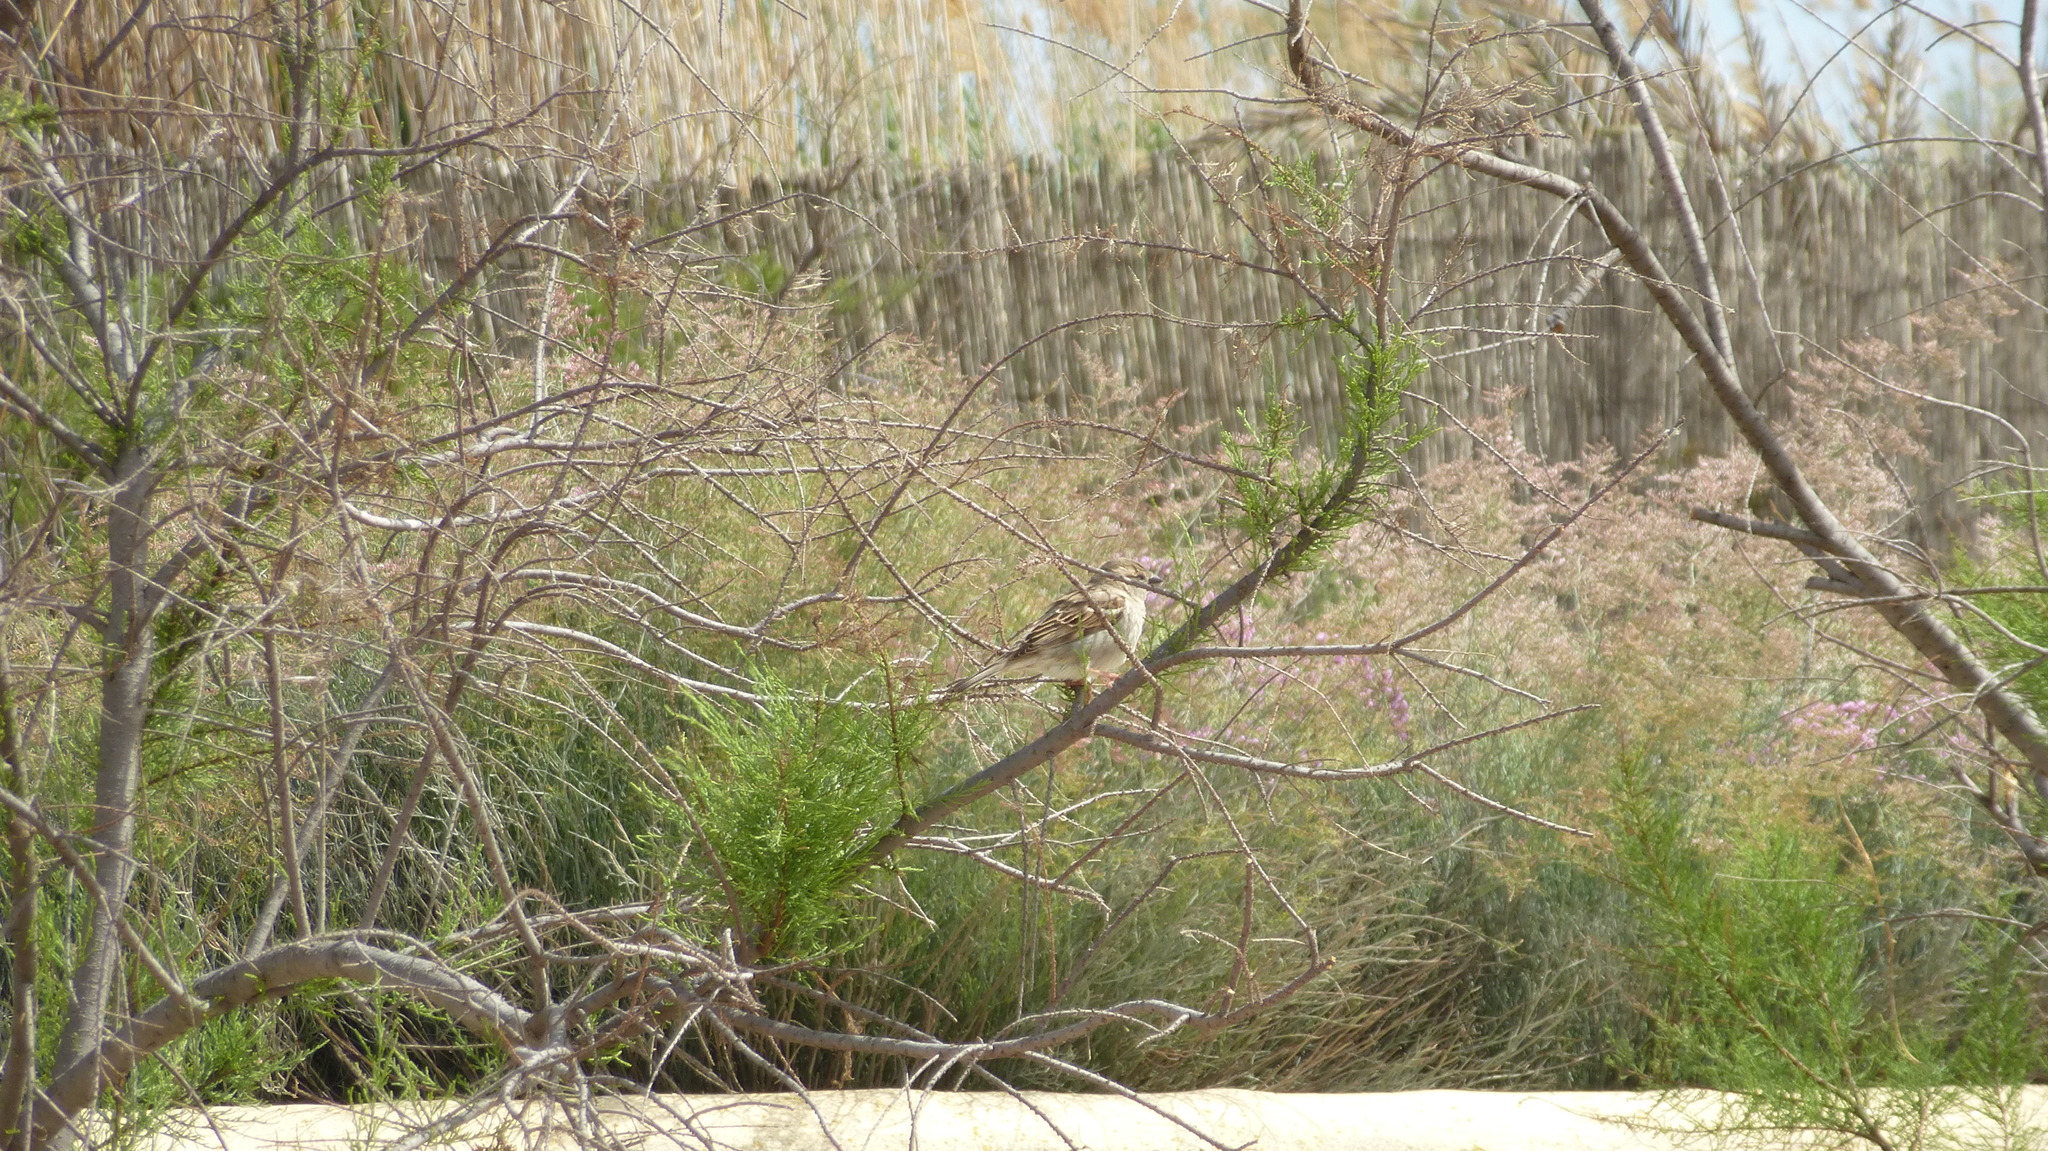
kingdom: Animalia
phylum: Chordata
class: Aves
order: Passeriformes
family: Passeridae
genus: Passer
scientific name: Passer domesticus
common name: House sparrow
